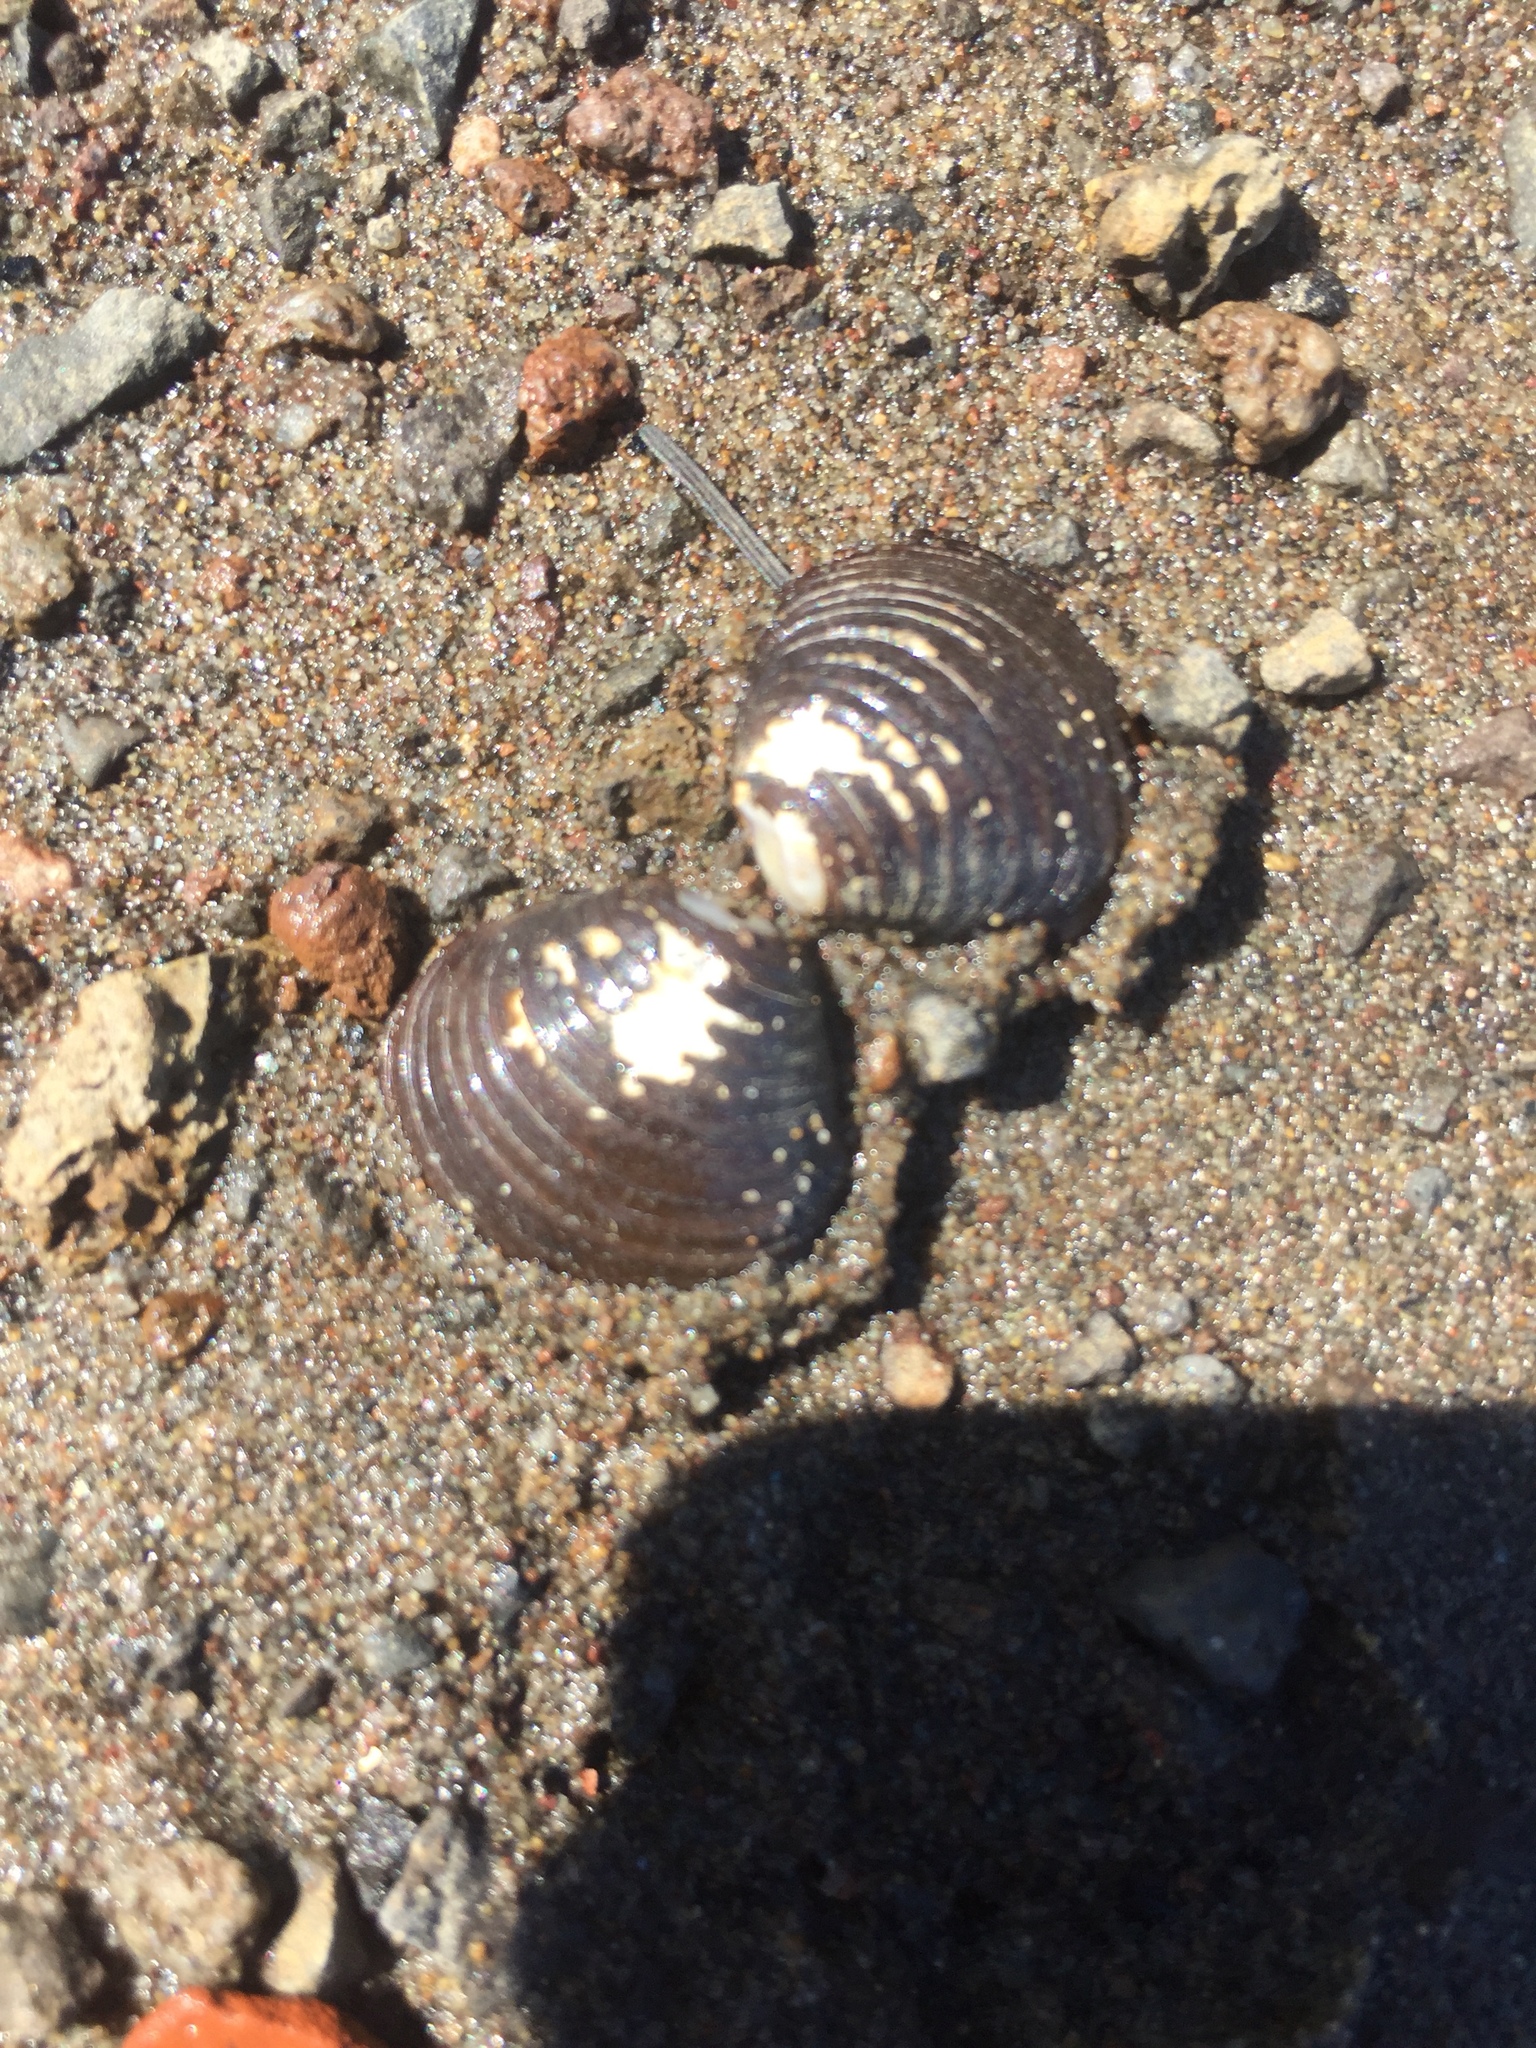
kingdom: Animalia
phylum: Mollusca
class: Bivalvia
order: Venerida
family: Cyrenidae
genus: Corbicula
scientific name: Corbicula fluminea
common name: Asian clam
